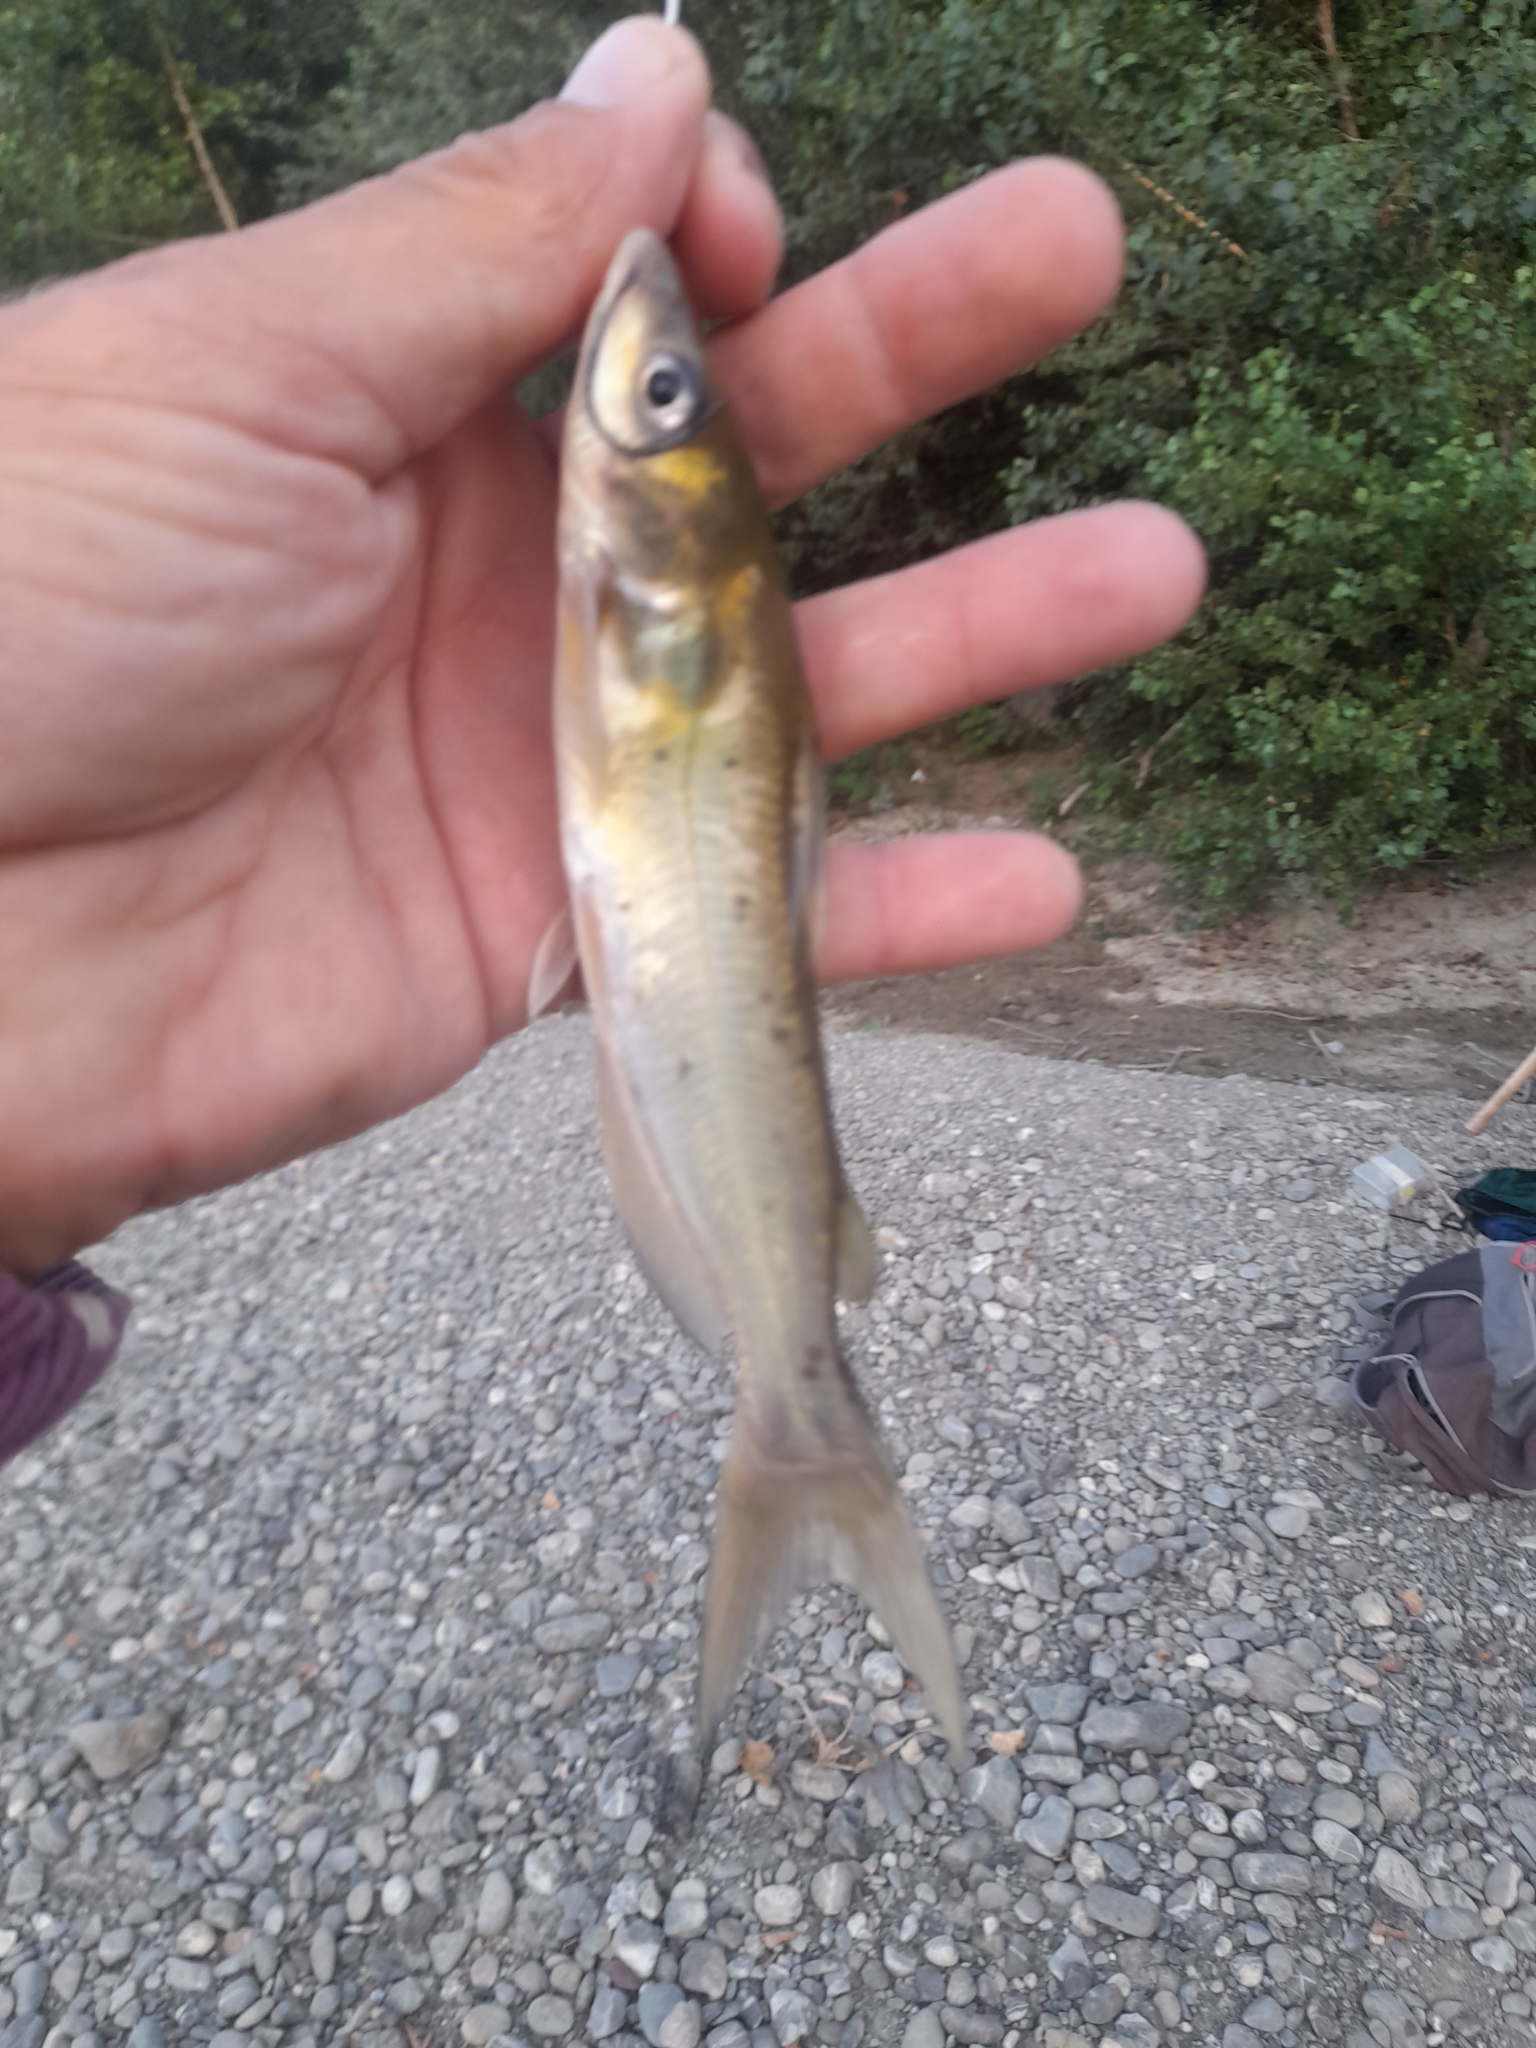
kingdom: Animalia
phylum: Chordata
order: Siluriformes
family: Ictaluridae
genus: Ictalurus
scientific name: Ictalurus punctatus
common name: Channel catfish
